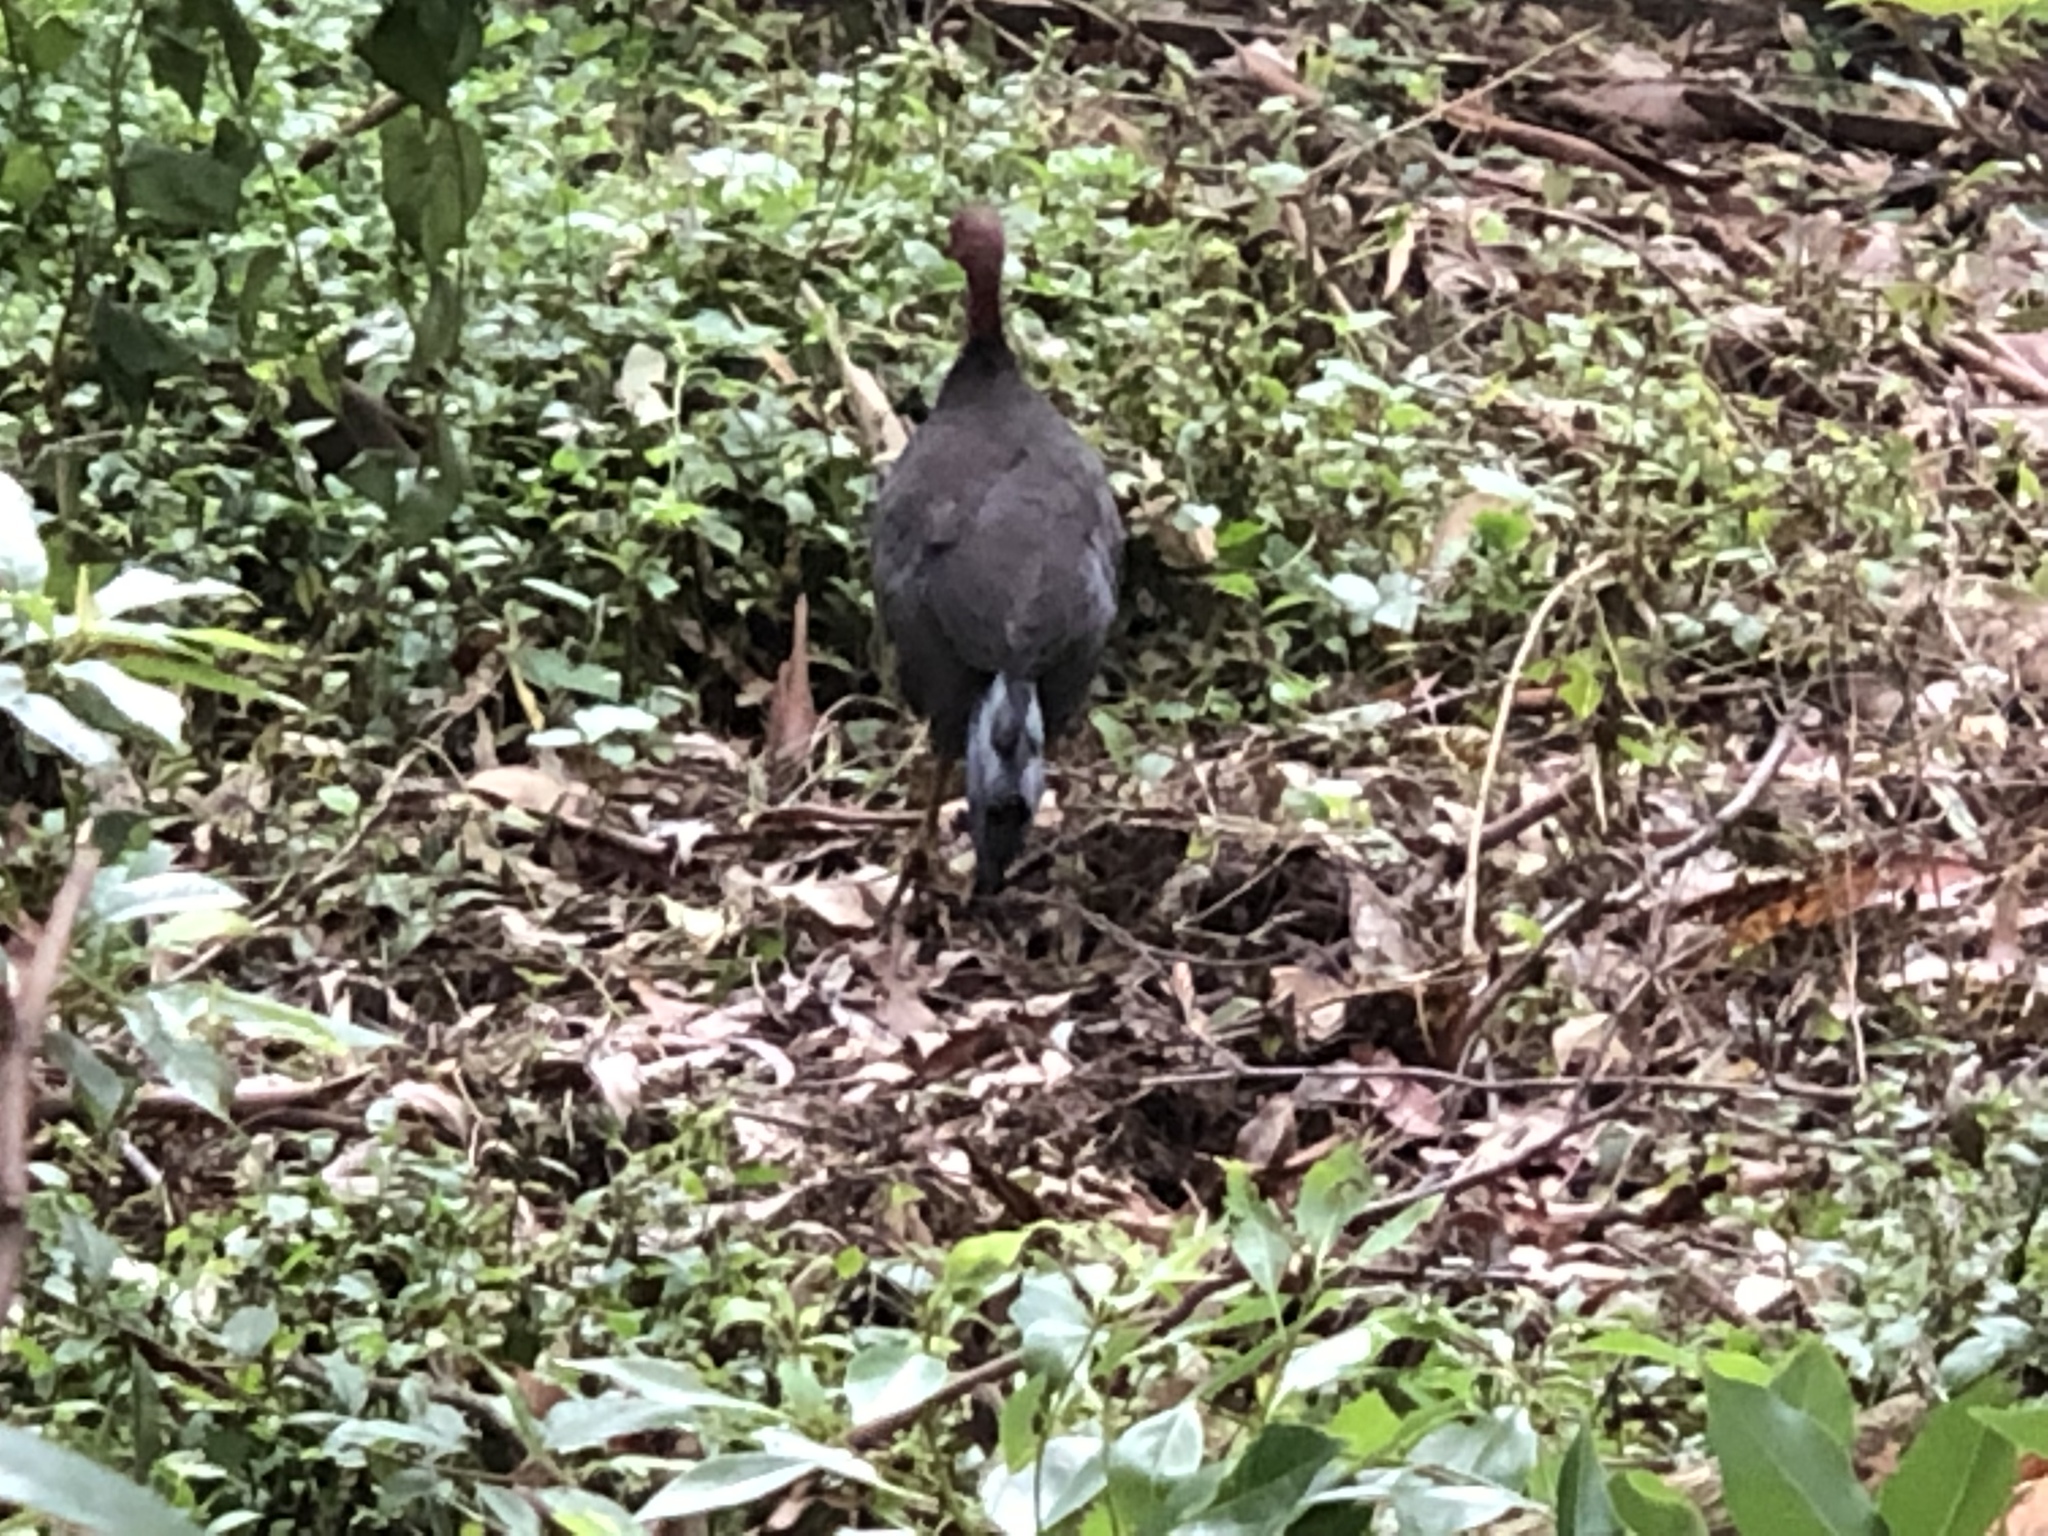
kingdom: Animalia
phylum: Chordata
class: Aves
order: Galliformes
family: Megapodiidae
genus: Alectura
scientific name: Alectura lathami
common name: Australian brushturkey
